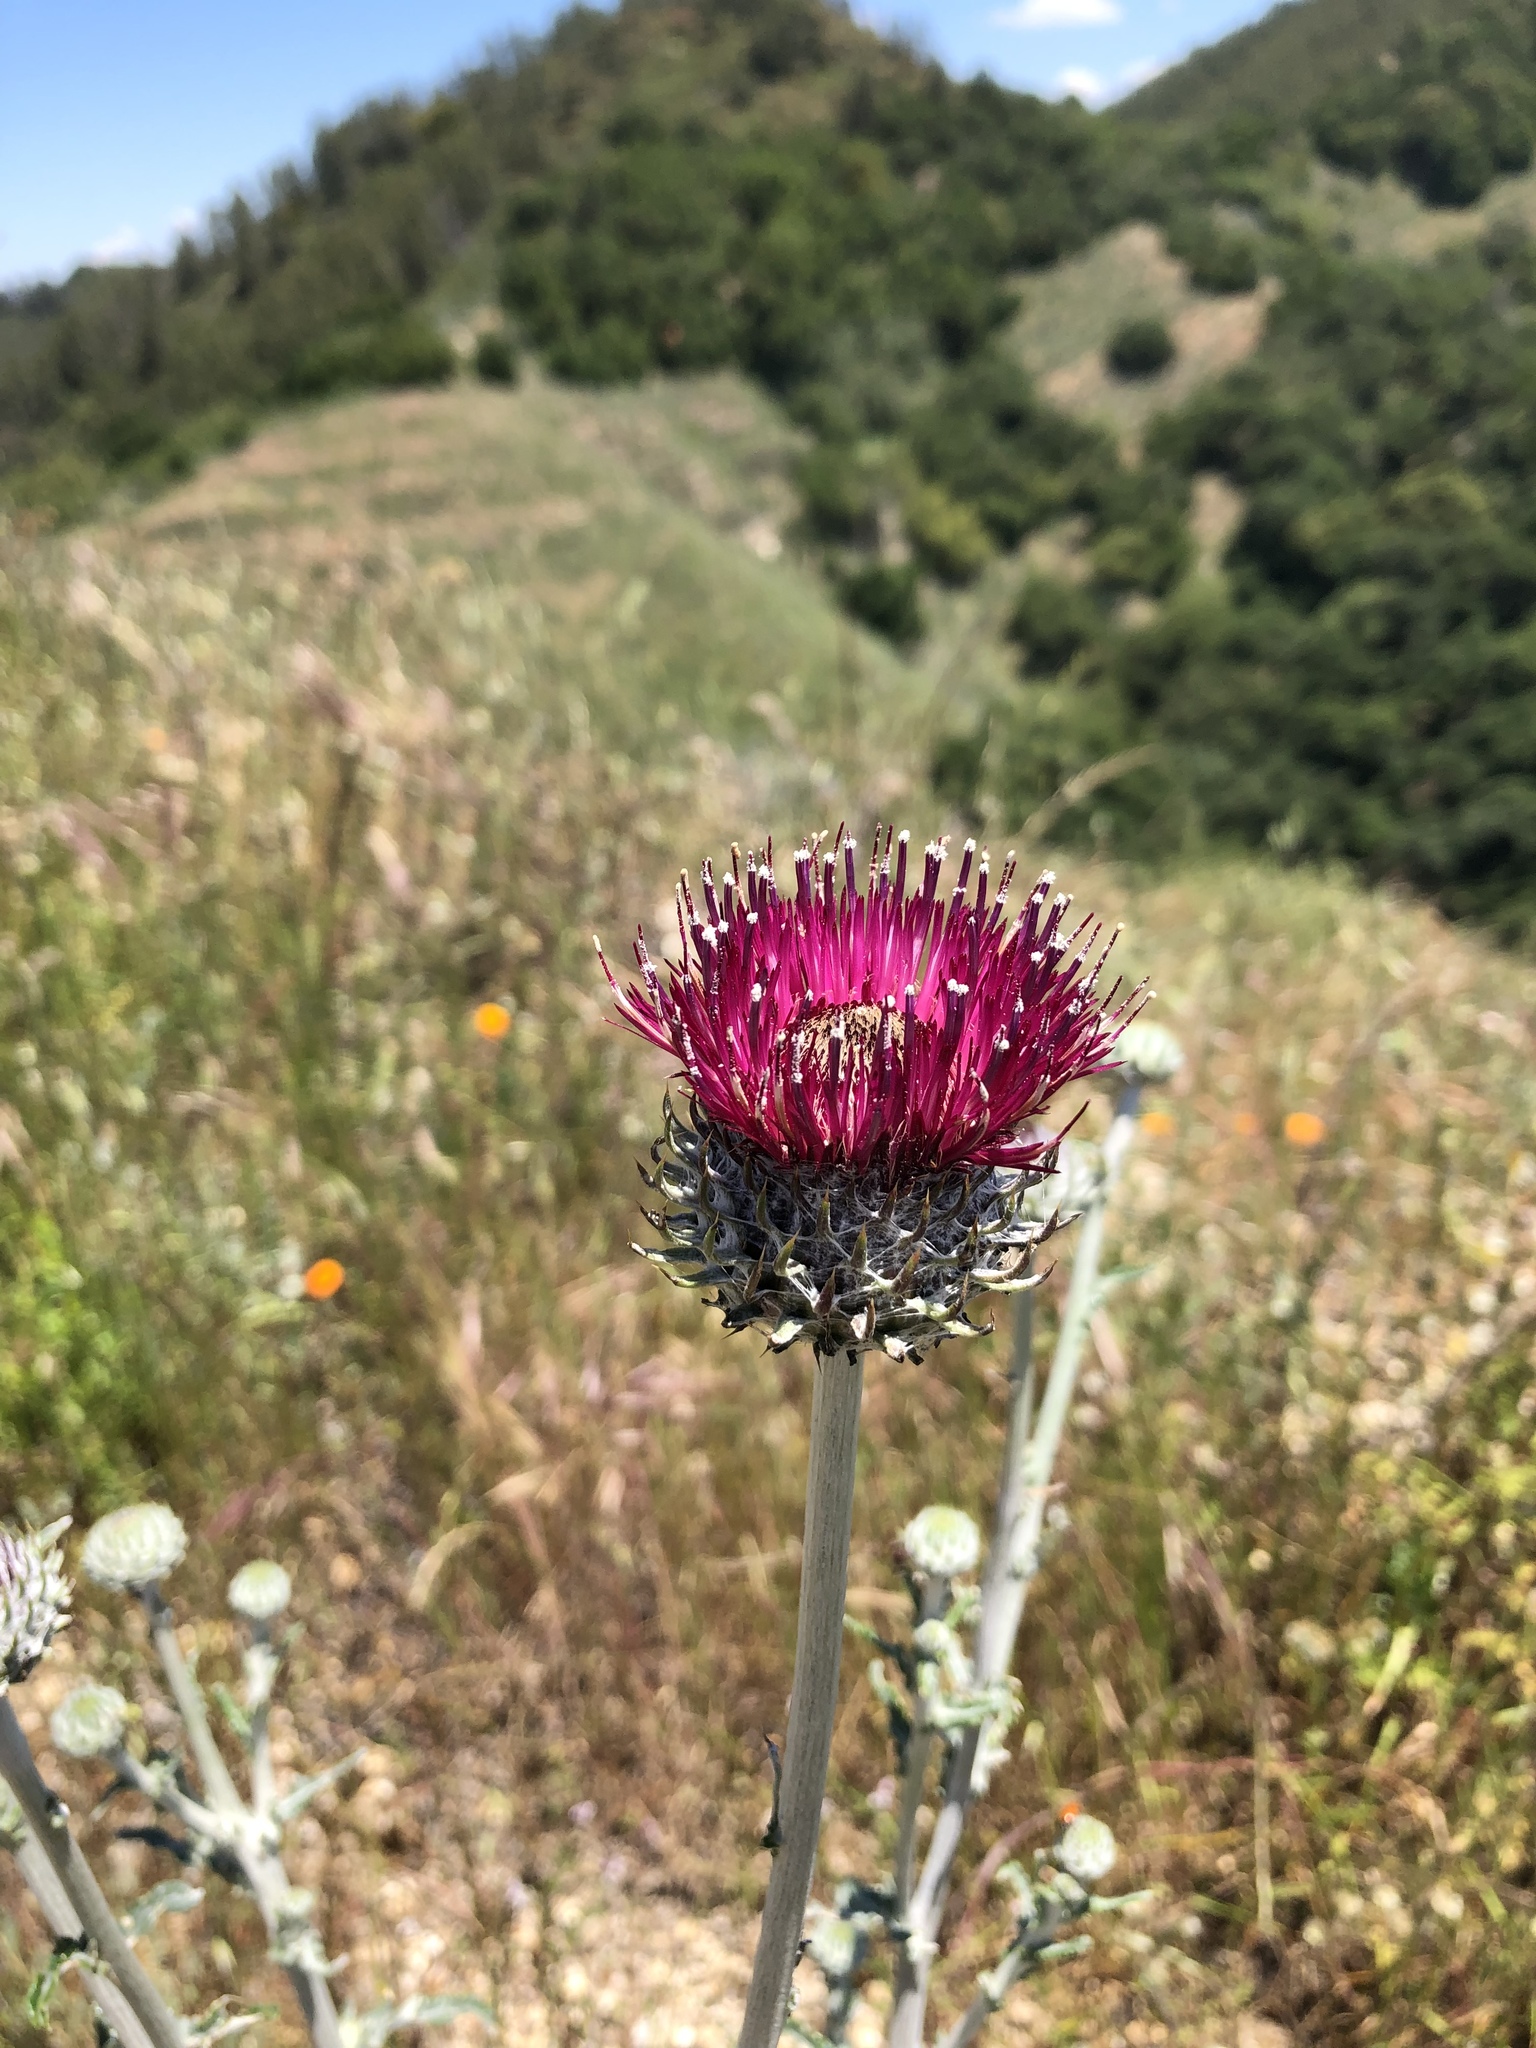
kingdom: Plantae
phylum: Tracheophyta
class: Magnoliopsida
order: Asterales
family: Asteraceae
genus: Cirsium
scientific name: Cirsium occidentale
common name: Western thistle
